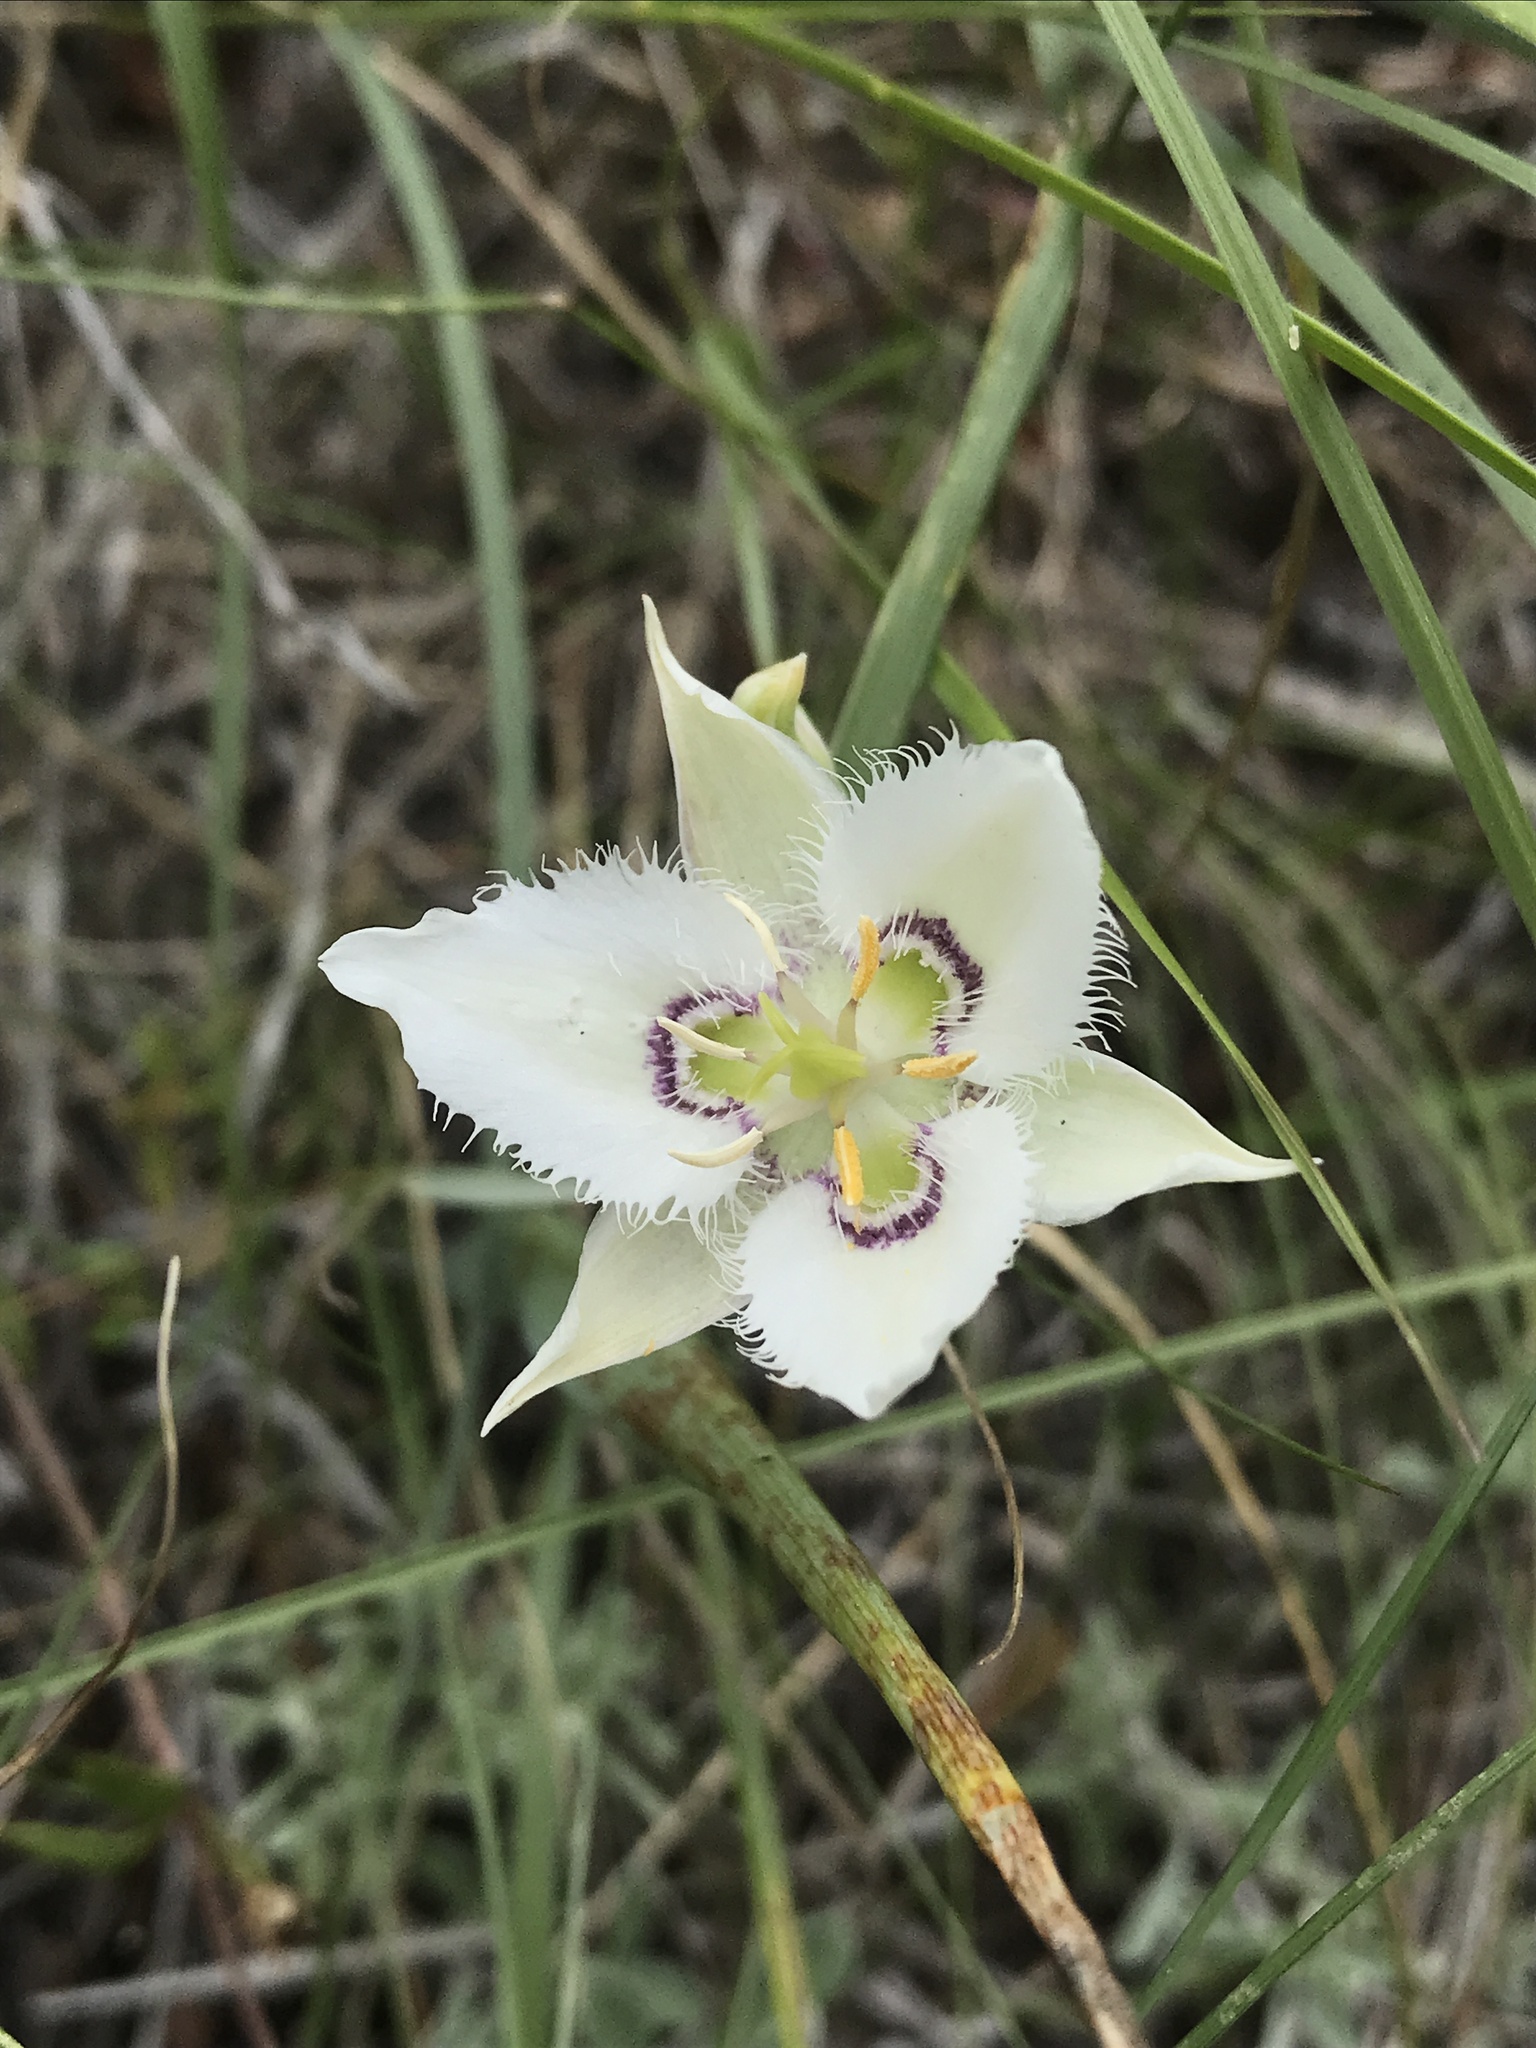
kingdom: Plantae
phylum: Tracheophyta
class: Liliopsida
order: Liliales
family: Liliaceae
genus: Calochortus
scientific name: Calochortus lyallii
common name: Lyall's mariposa lily
